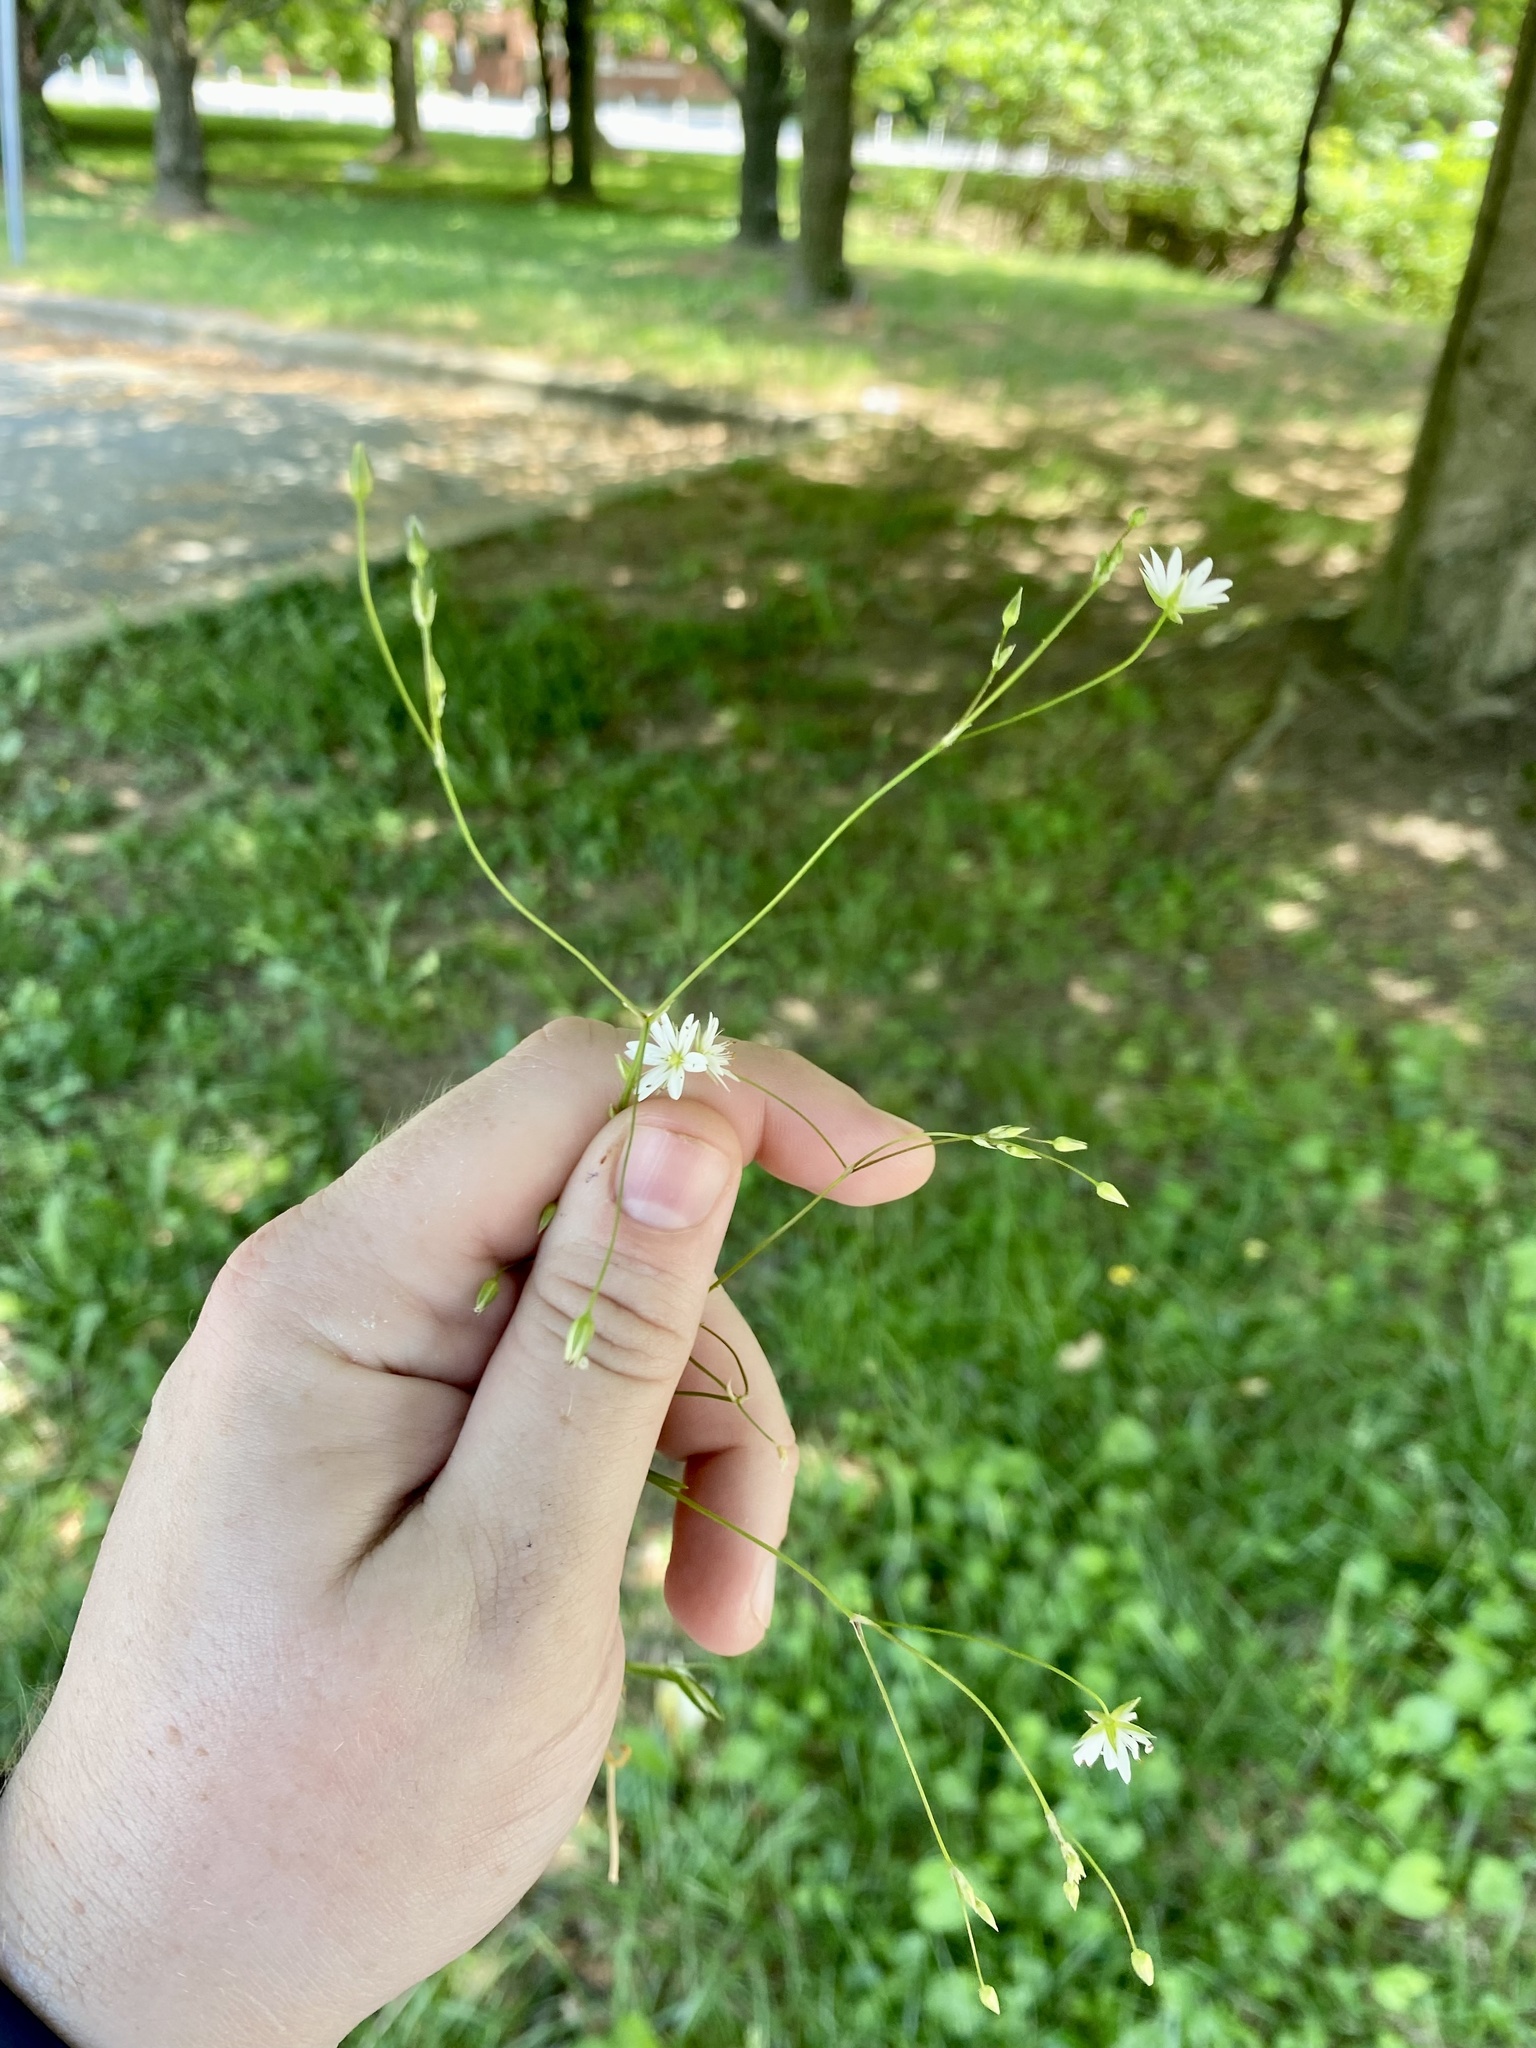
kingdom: Plantae
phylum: Tracheophyta
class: Magnoliopsida
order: Caryophyllales
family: Caryophyllaceae
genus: Stellaria
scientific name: Stellaria graminea
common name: Grass-like starwort
